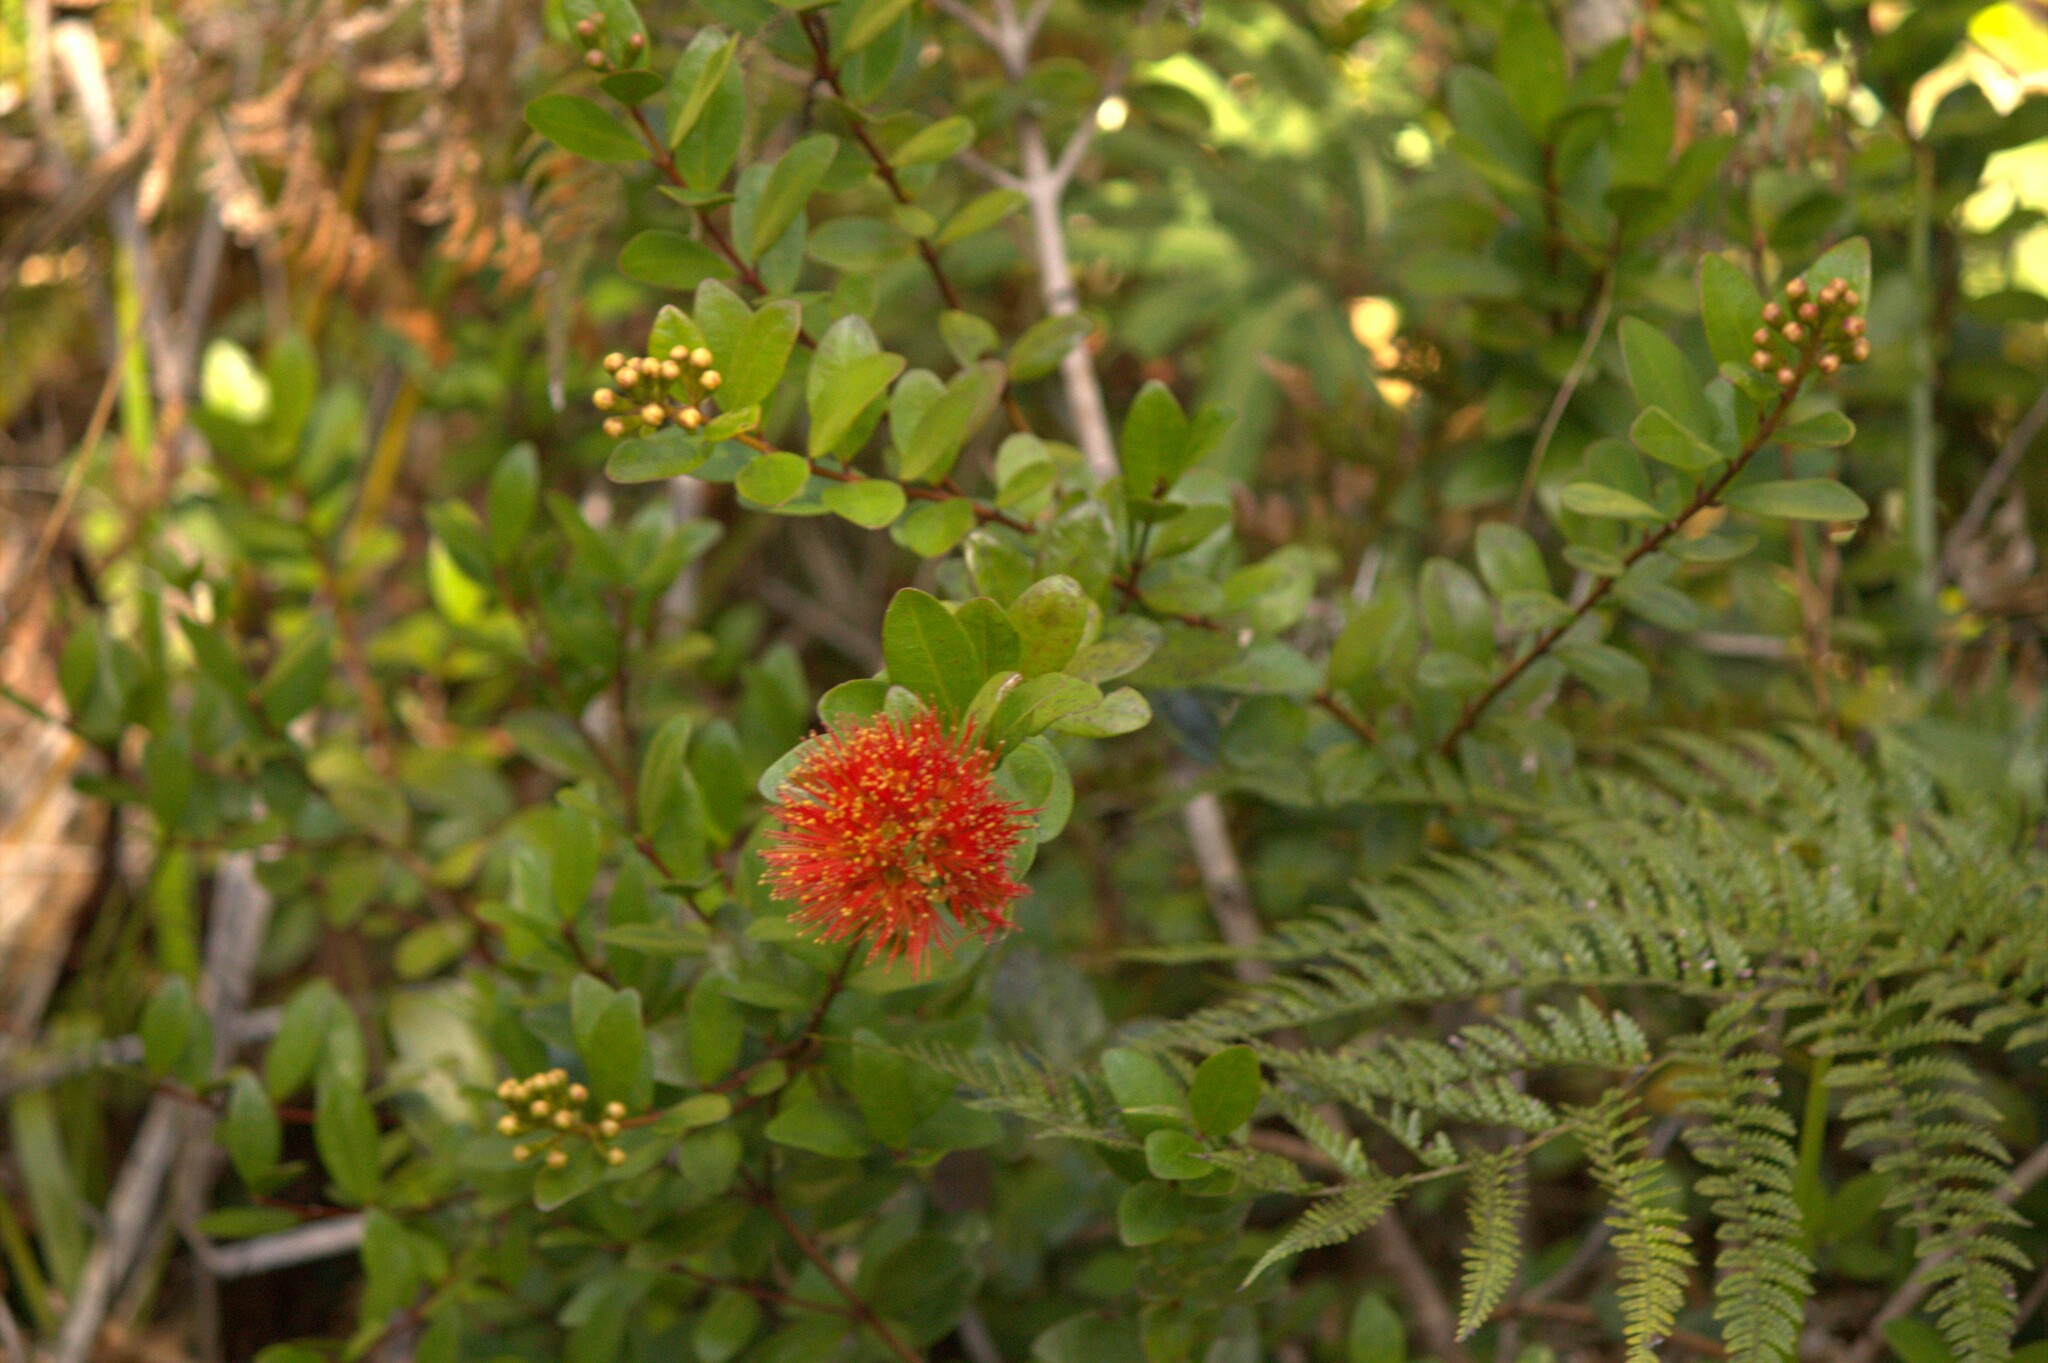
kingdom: Plantae
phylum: Tracheophyta
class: Magnoliopsida
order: Myrtales
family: Myrtaceae
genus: Metrosideros
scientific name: Metrosideros fulgens
